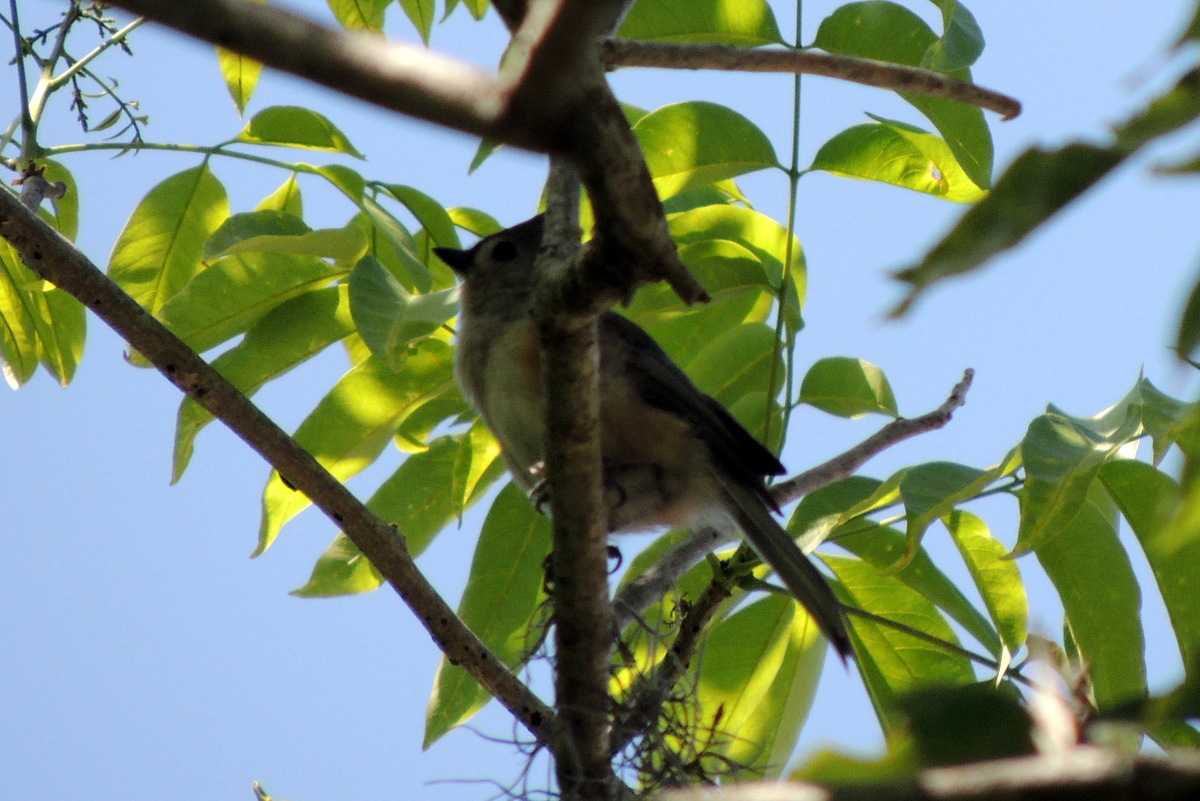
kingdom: Animalia
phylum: Chordata
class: Aves
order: Passeriformes
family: Paridae
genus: Baeolophus
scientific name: Baeolophus bicolor
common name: Tufted titmouse
